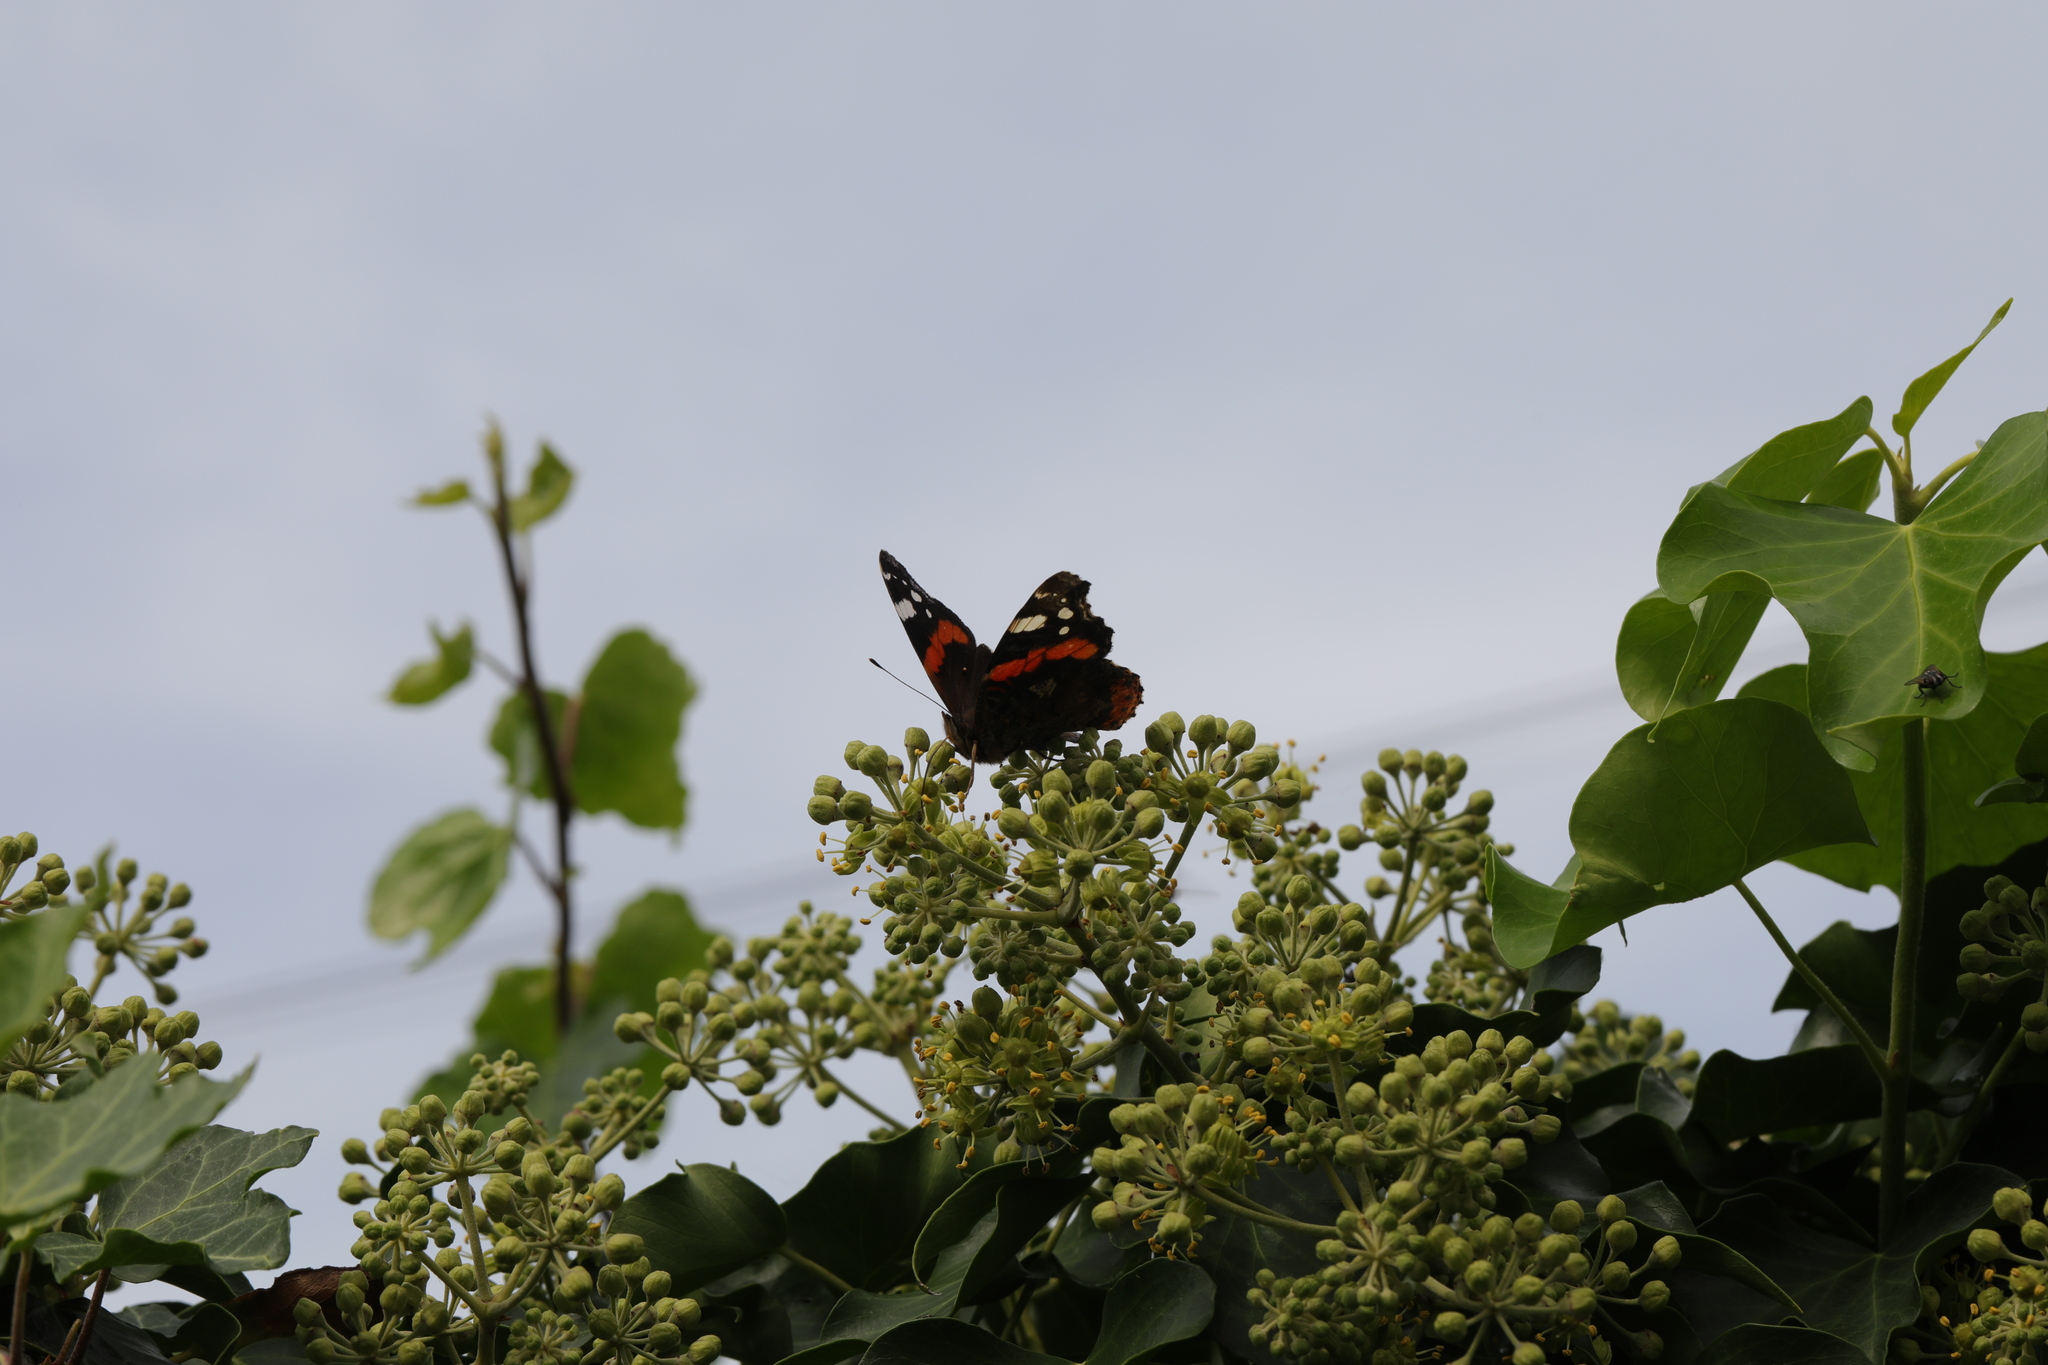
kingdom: Animalia
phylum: Arthropoda
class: Insecta
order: Lepidoptera
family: Nymphalidae
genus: Vanessa
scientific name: Vanessa atalanta
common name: Red admiral
